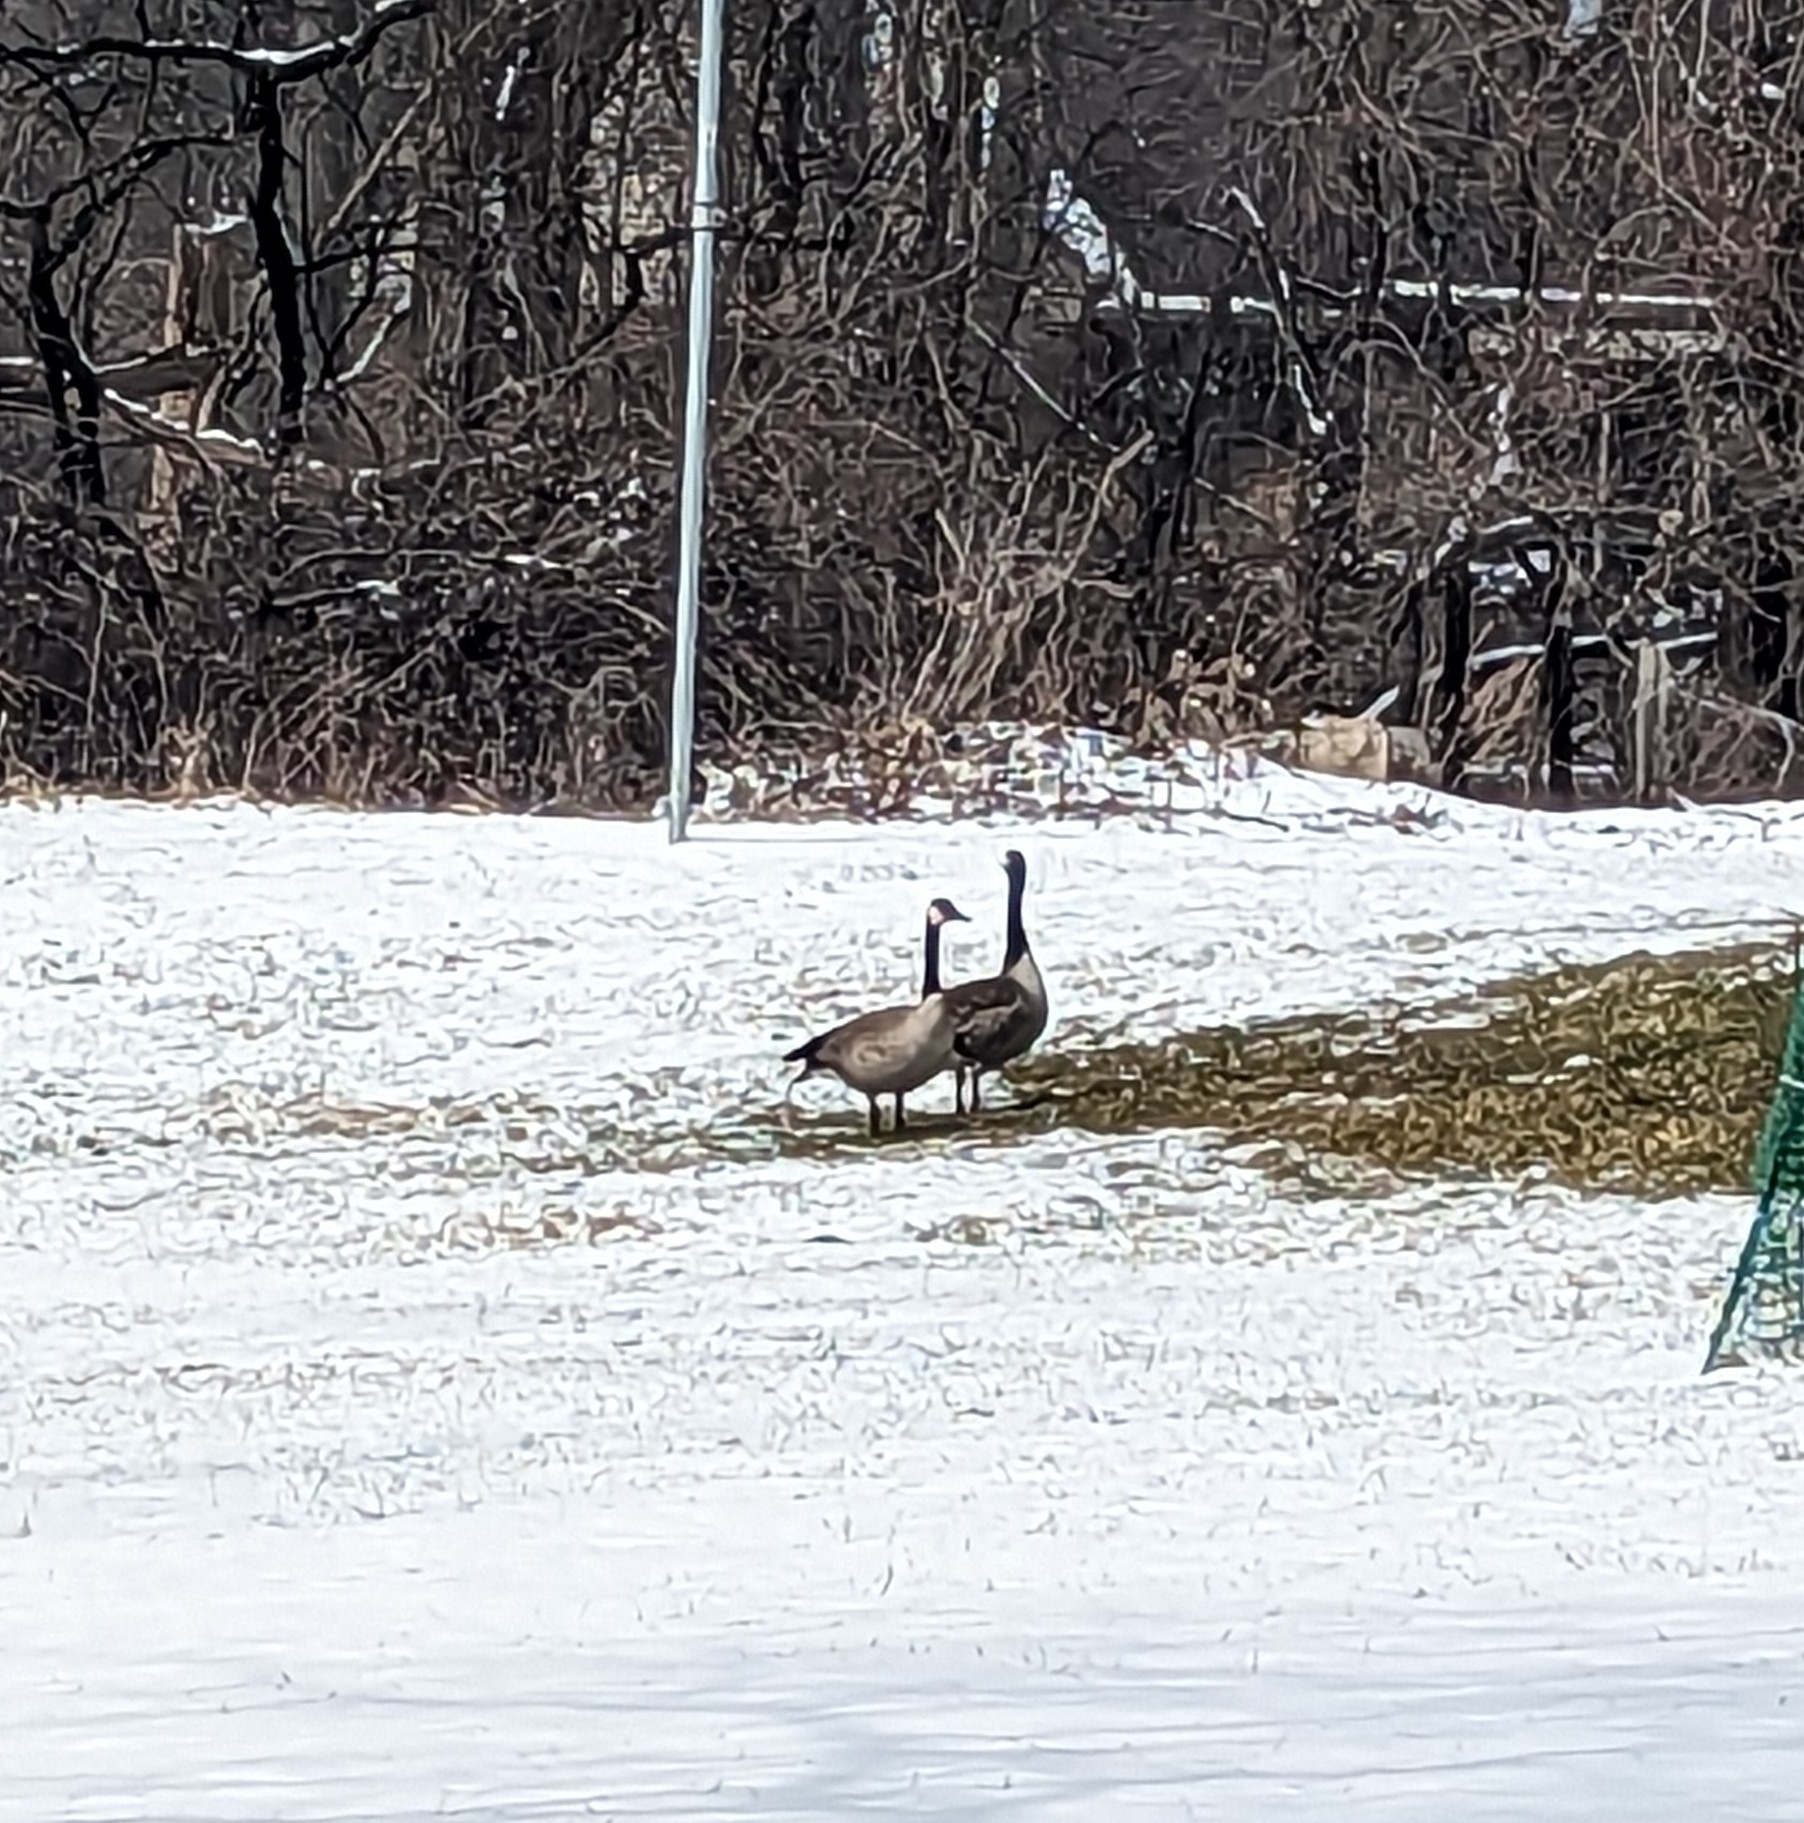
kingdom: Animalia
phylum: Chordata
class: Aves
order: Anseriformes
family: Anatidae
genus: Branta
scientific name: Branta canadensis
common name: Canada goose
